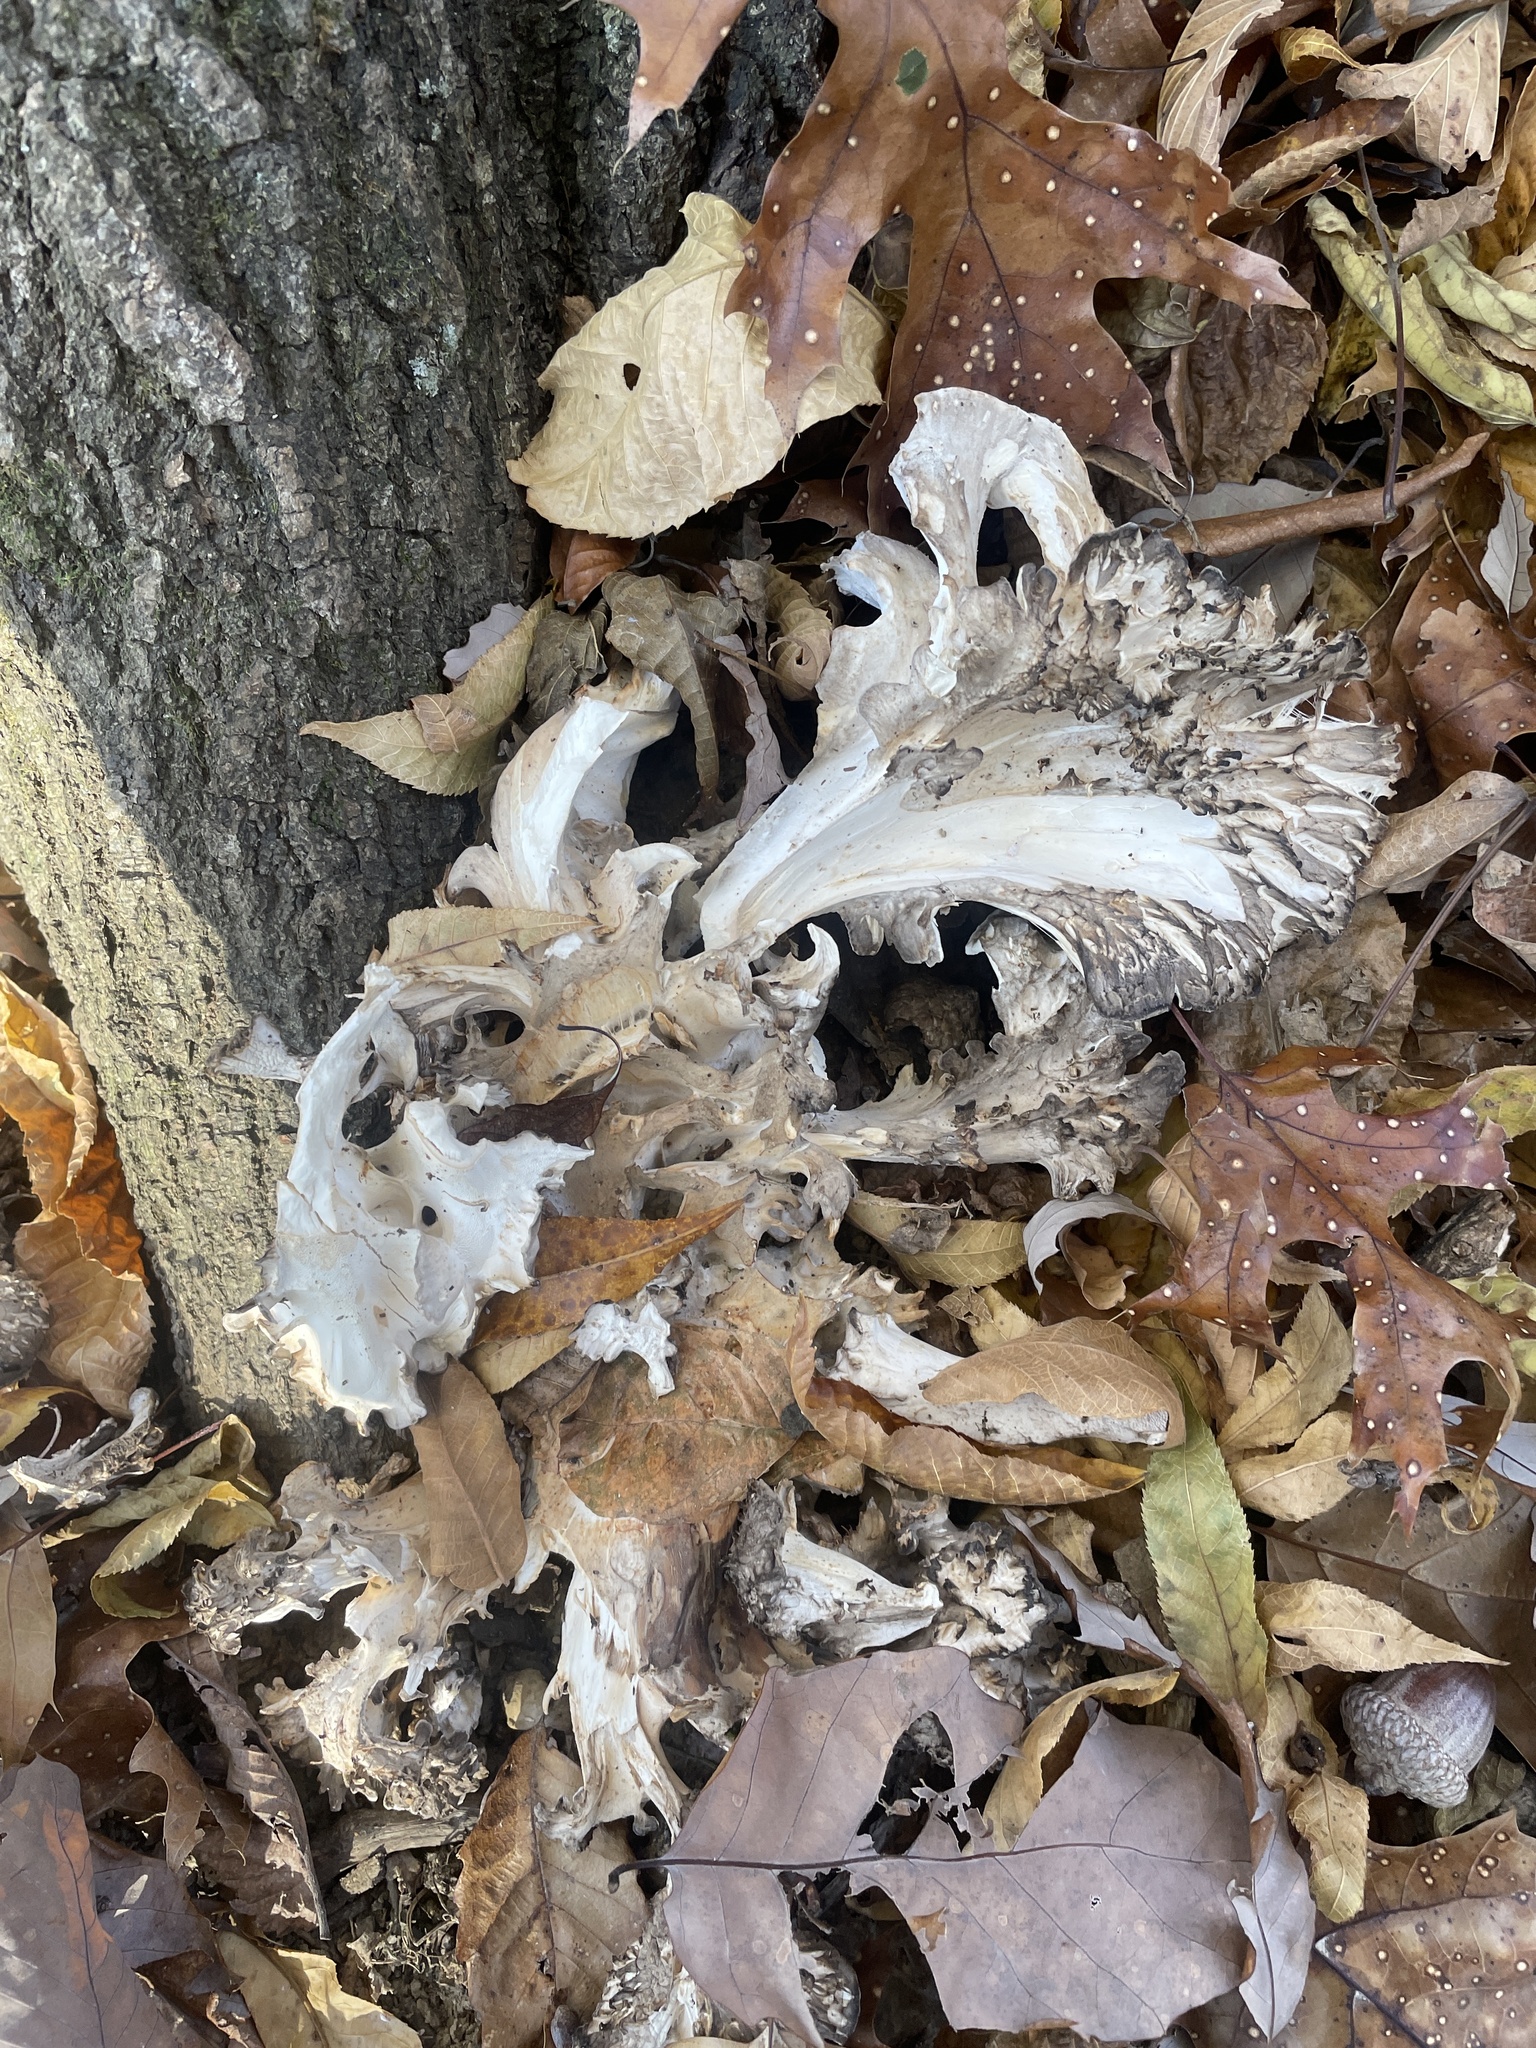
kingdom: Fungi
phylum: Basidiomycota
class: Agaricomycetes
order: Polyporales
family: Grifolaceae
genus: Grifola
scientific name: Grifola frondosa
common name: Hen of the woods
